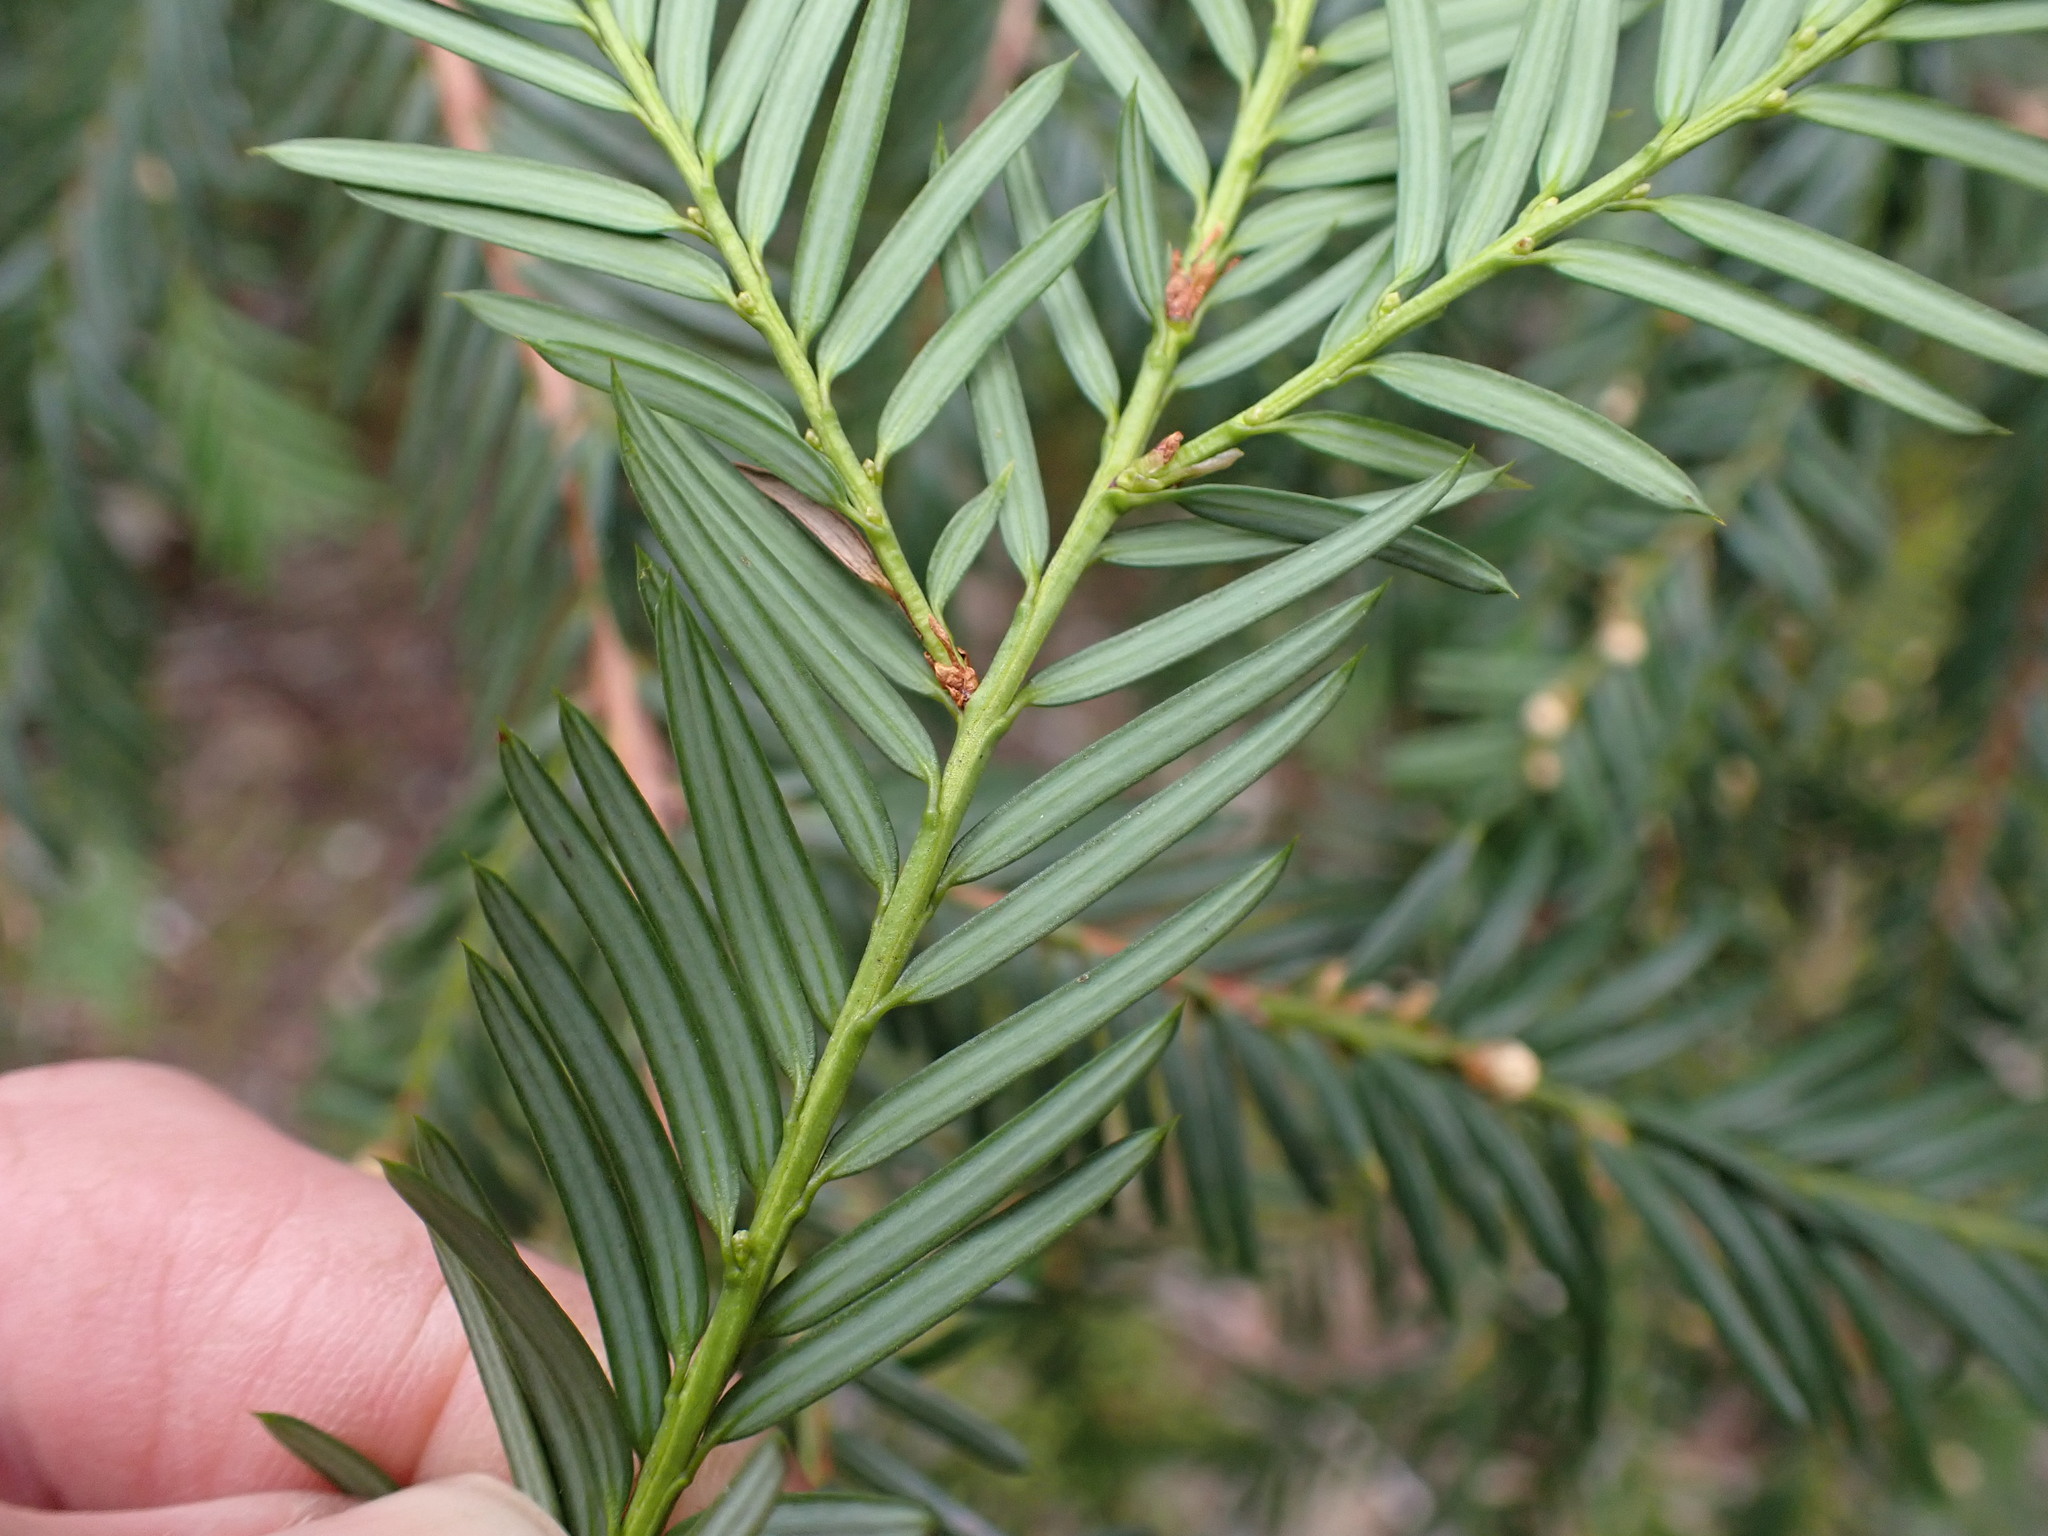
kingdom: Plantae
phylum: Tracheophyta
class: Pinopsida
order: Pinales
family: Taxaceae
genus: Taxus
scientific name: Taxus brevifolia
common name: Pacific yew
